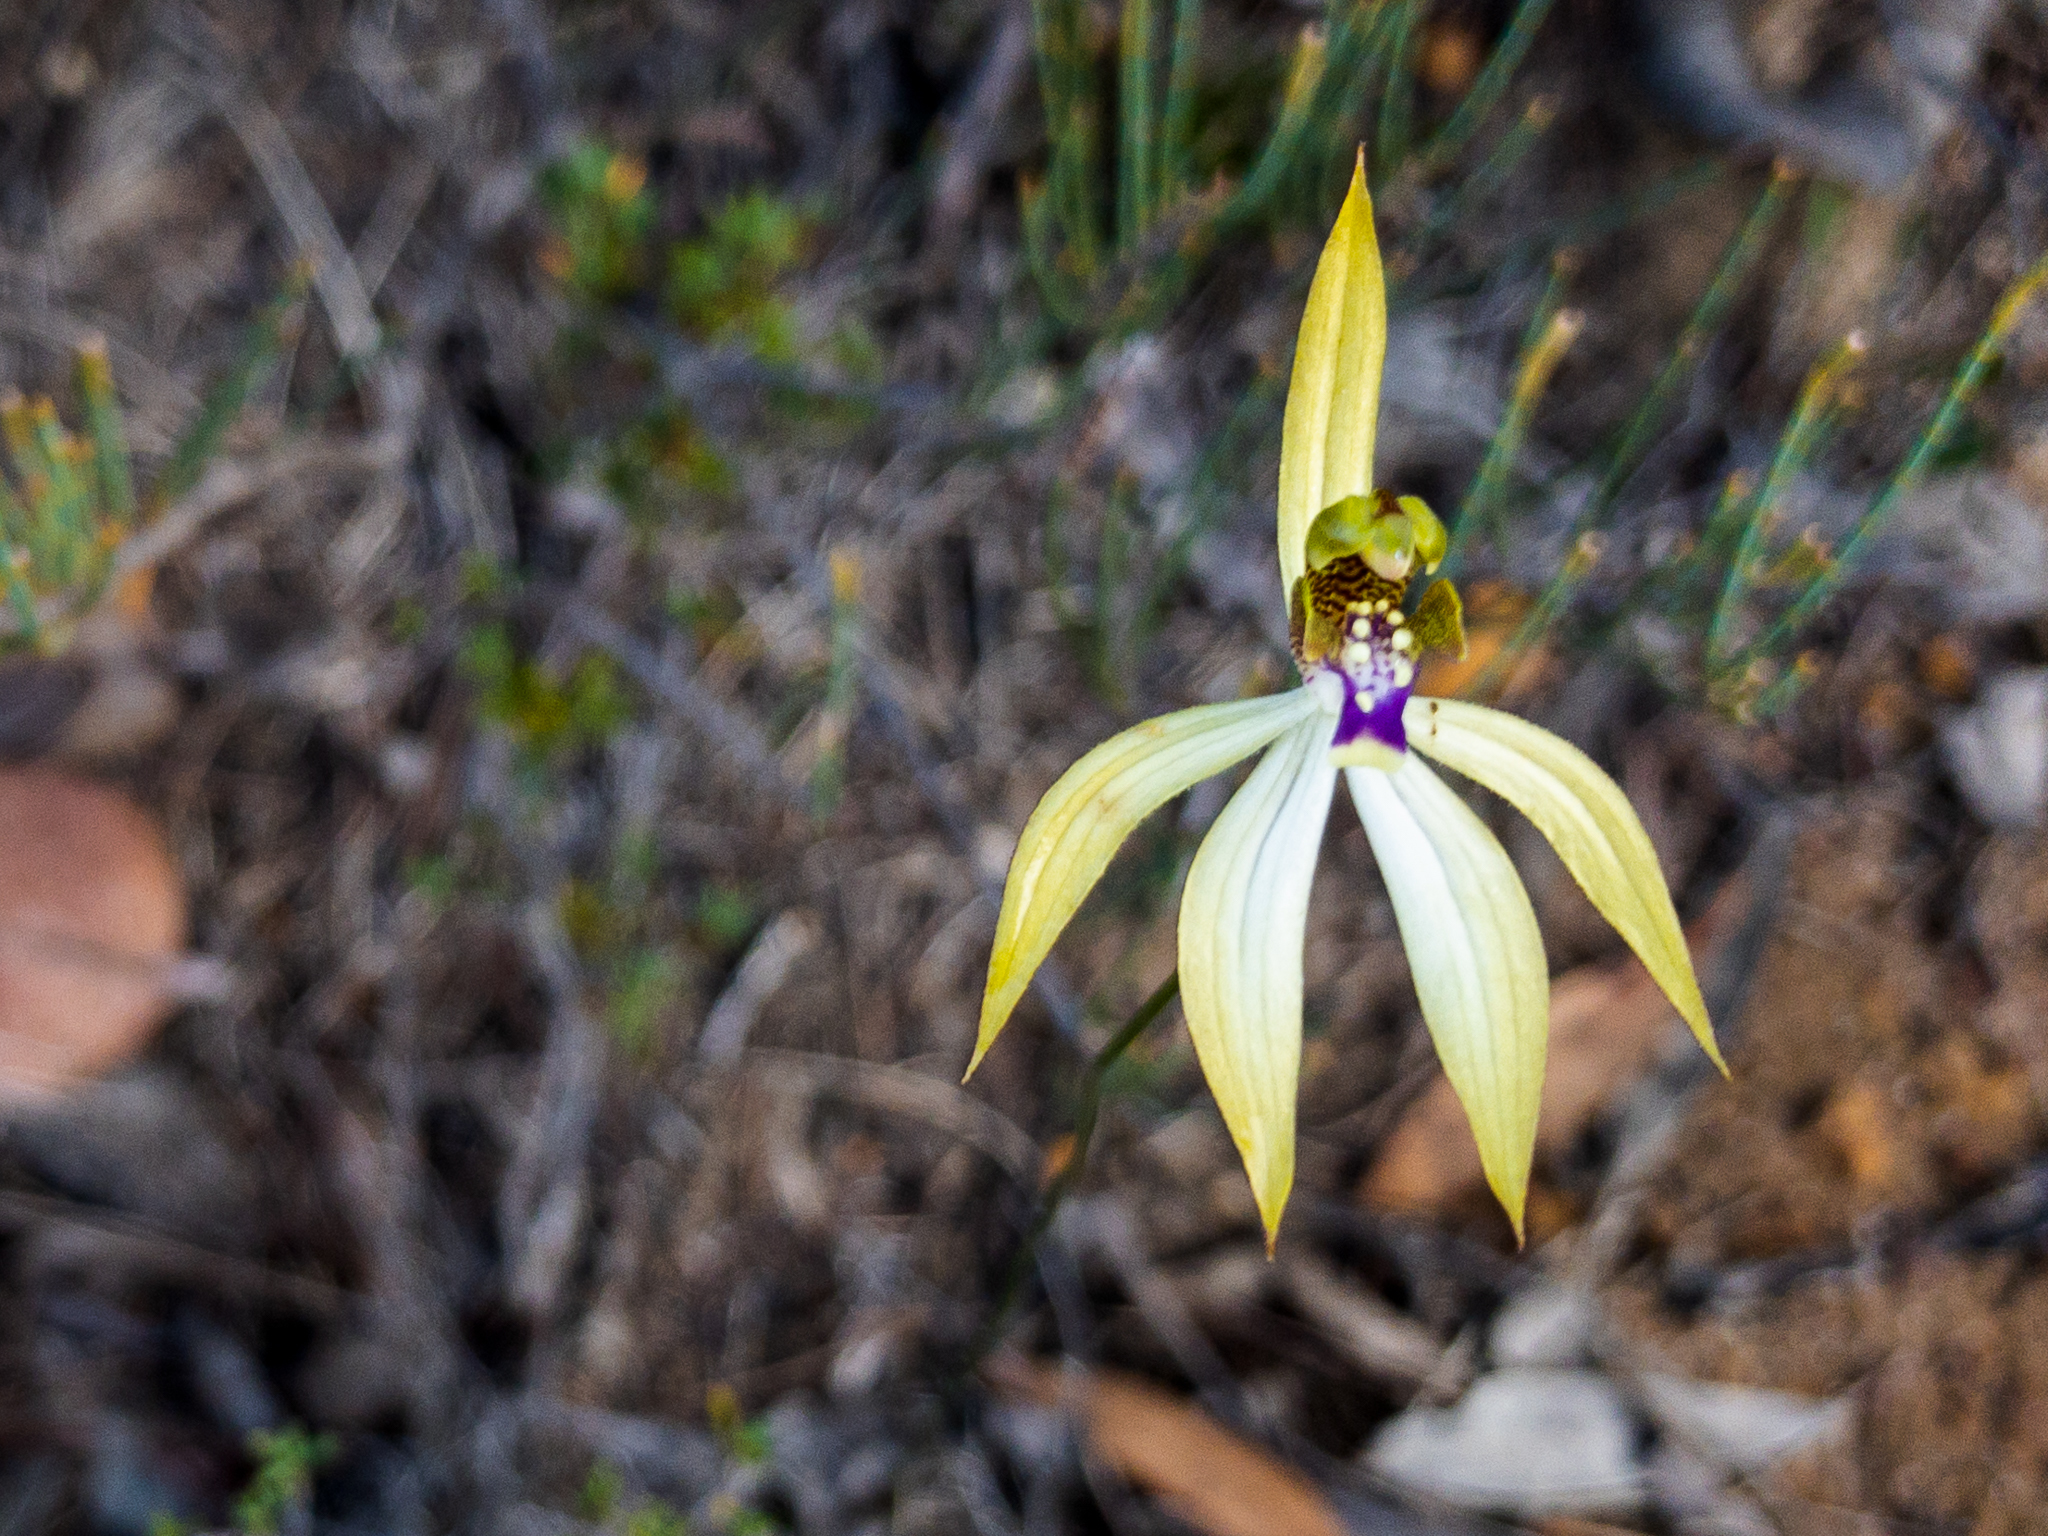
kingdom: Plantae
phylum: Tracheophyta
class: Liliopsida
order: Asparagales
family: Orchidaceae
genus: Praecoxanthus
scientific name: Praecoxanthus aphyllus
